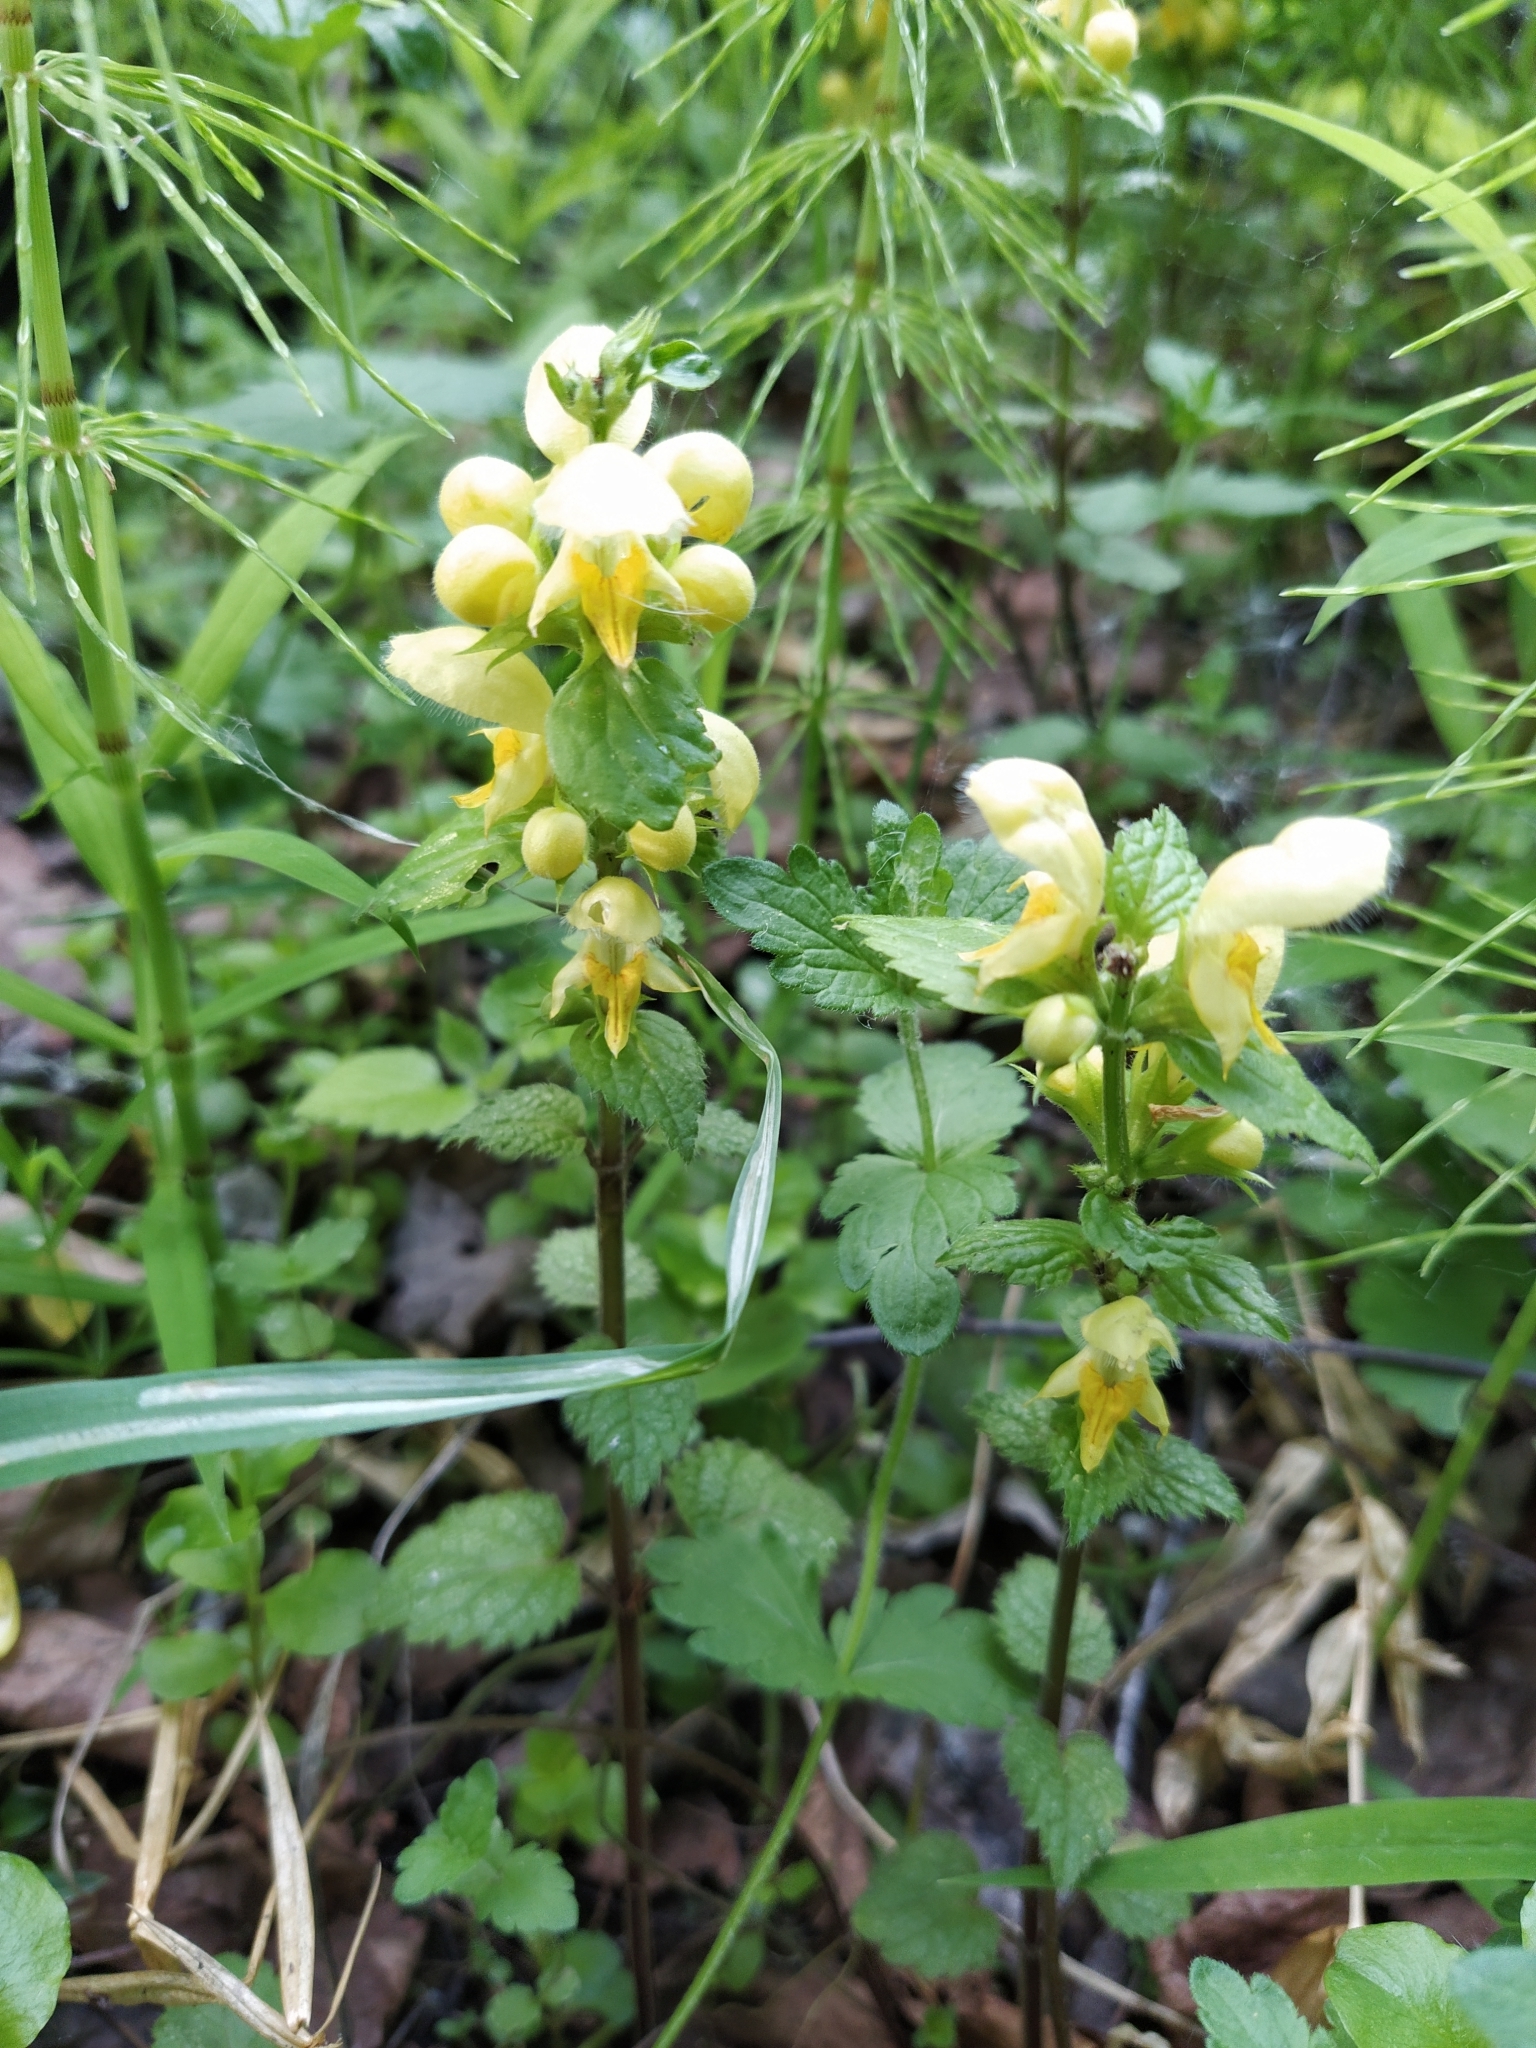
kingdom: Plantae
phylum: Tracheophyta
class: Magnoliopsida
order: Lamiales
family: Lamiaceae
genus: Lamium
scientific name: Lamium galeobdolon
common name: Yellow archangel
